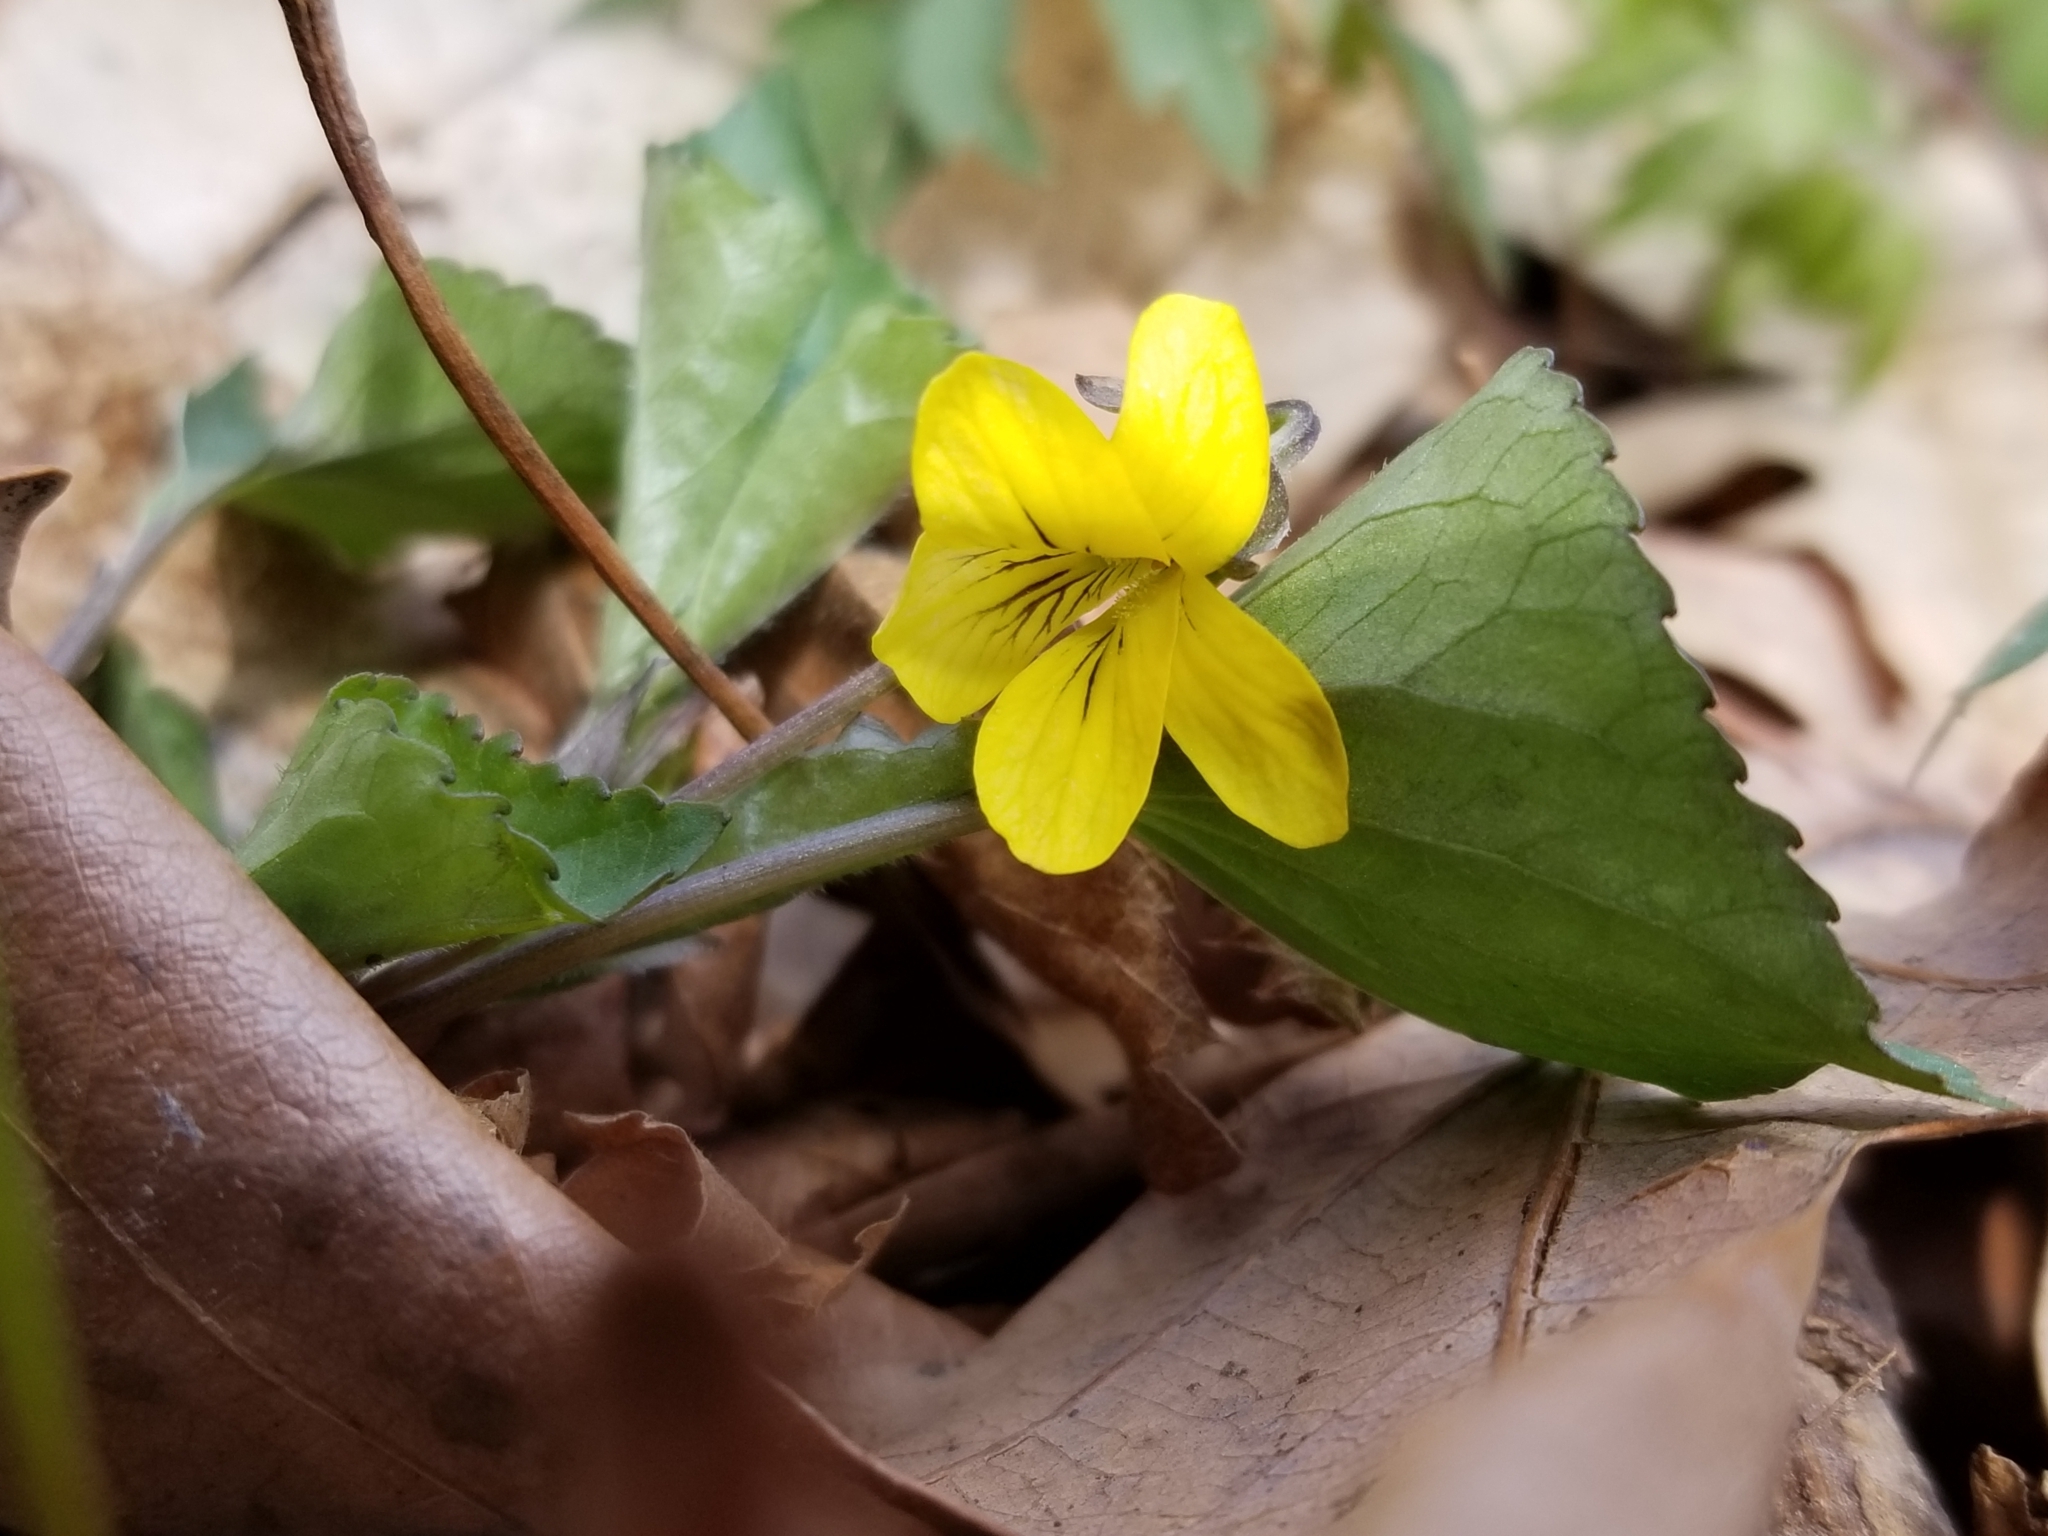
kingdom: Plantae
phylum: Tracheophyta
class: Magnoliopsida
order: Malpighiales
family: Violaceae
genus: Viola
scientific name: Viola eriocarpa
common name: Smooth yellow violet
